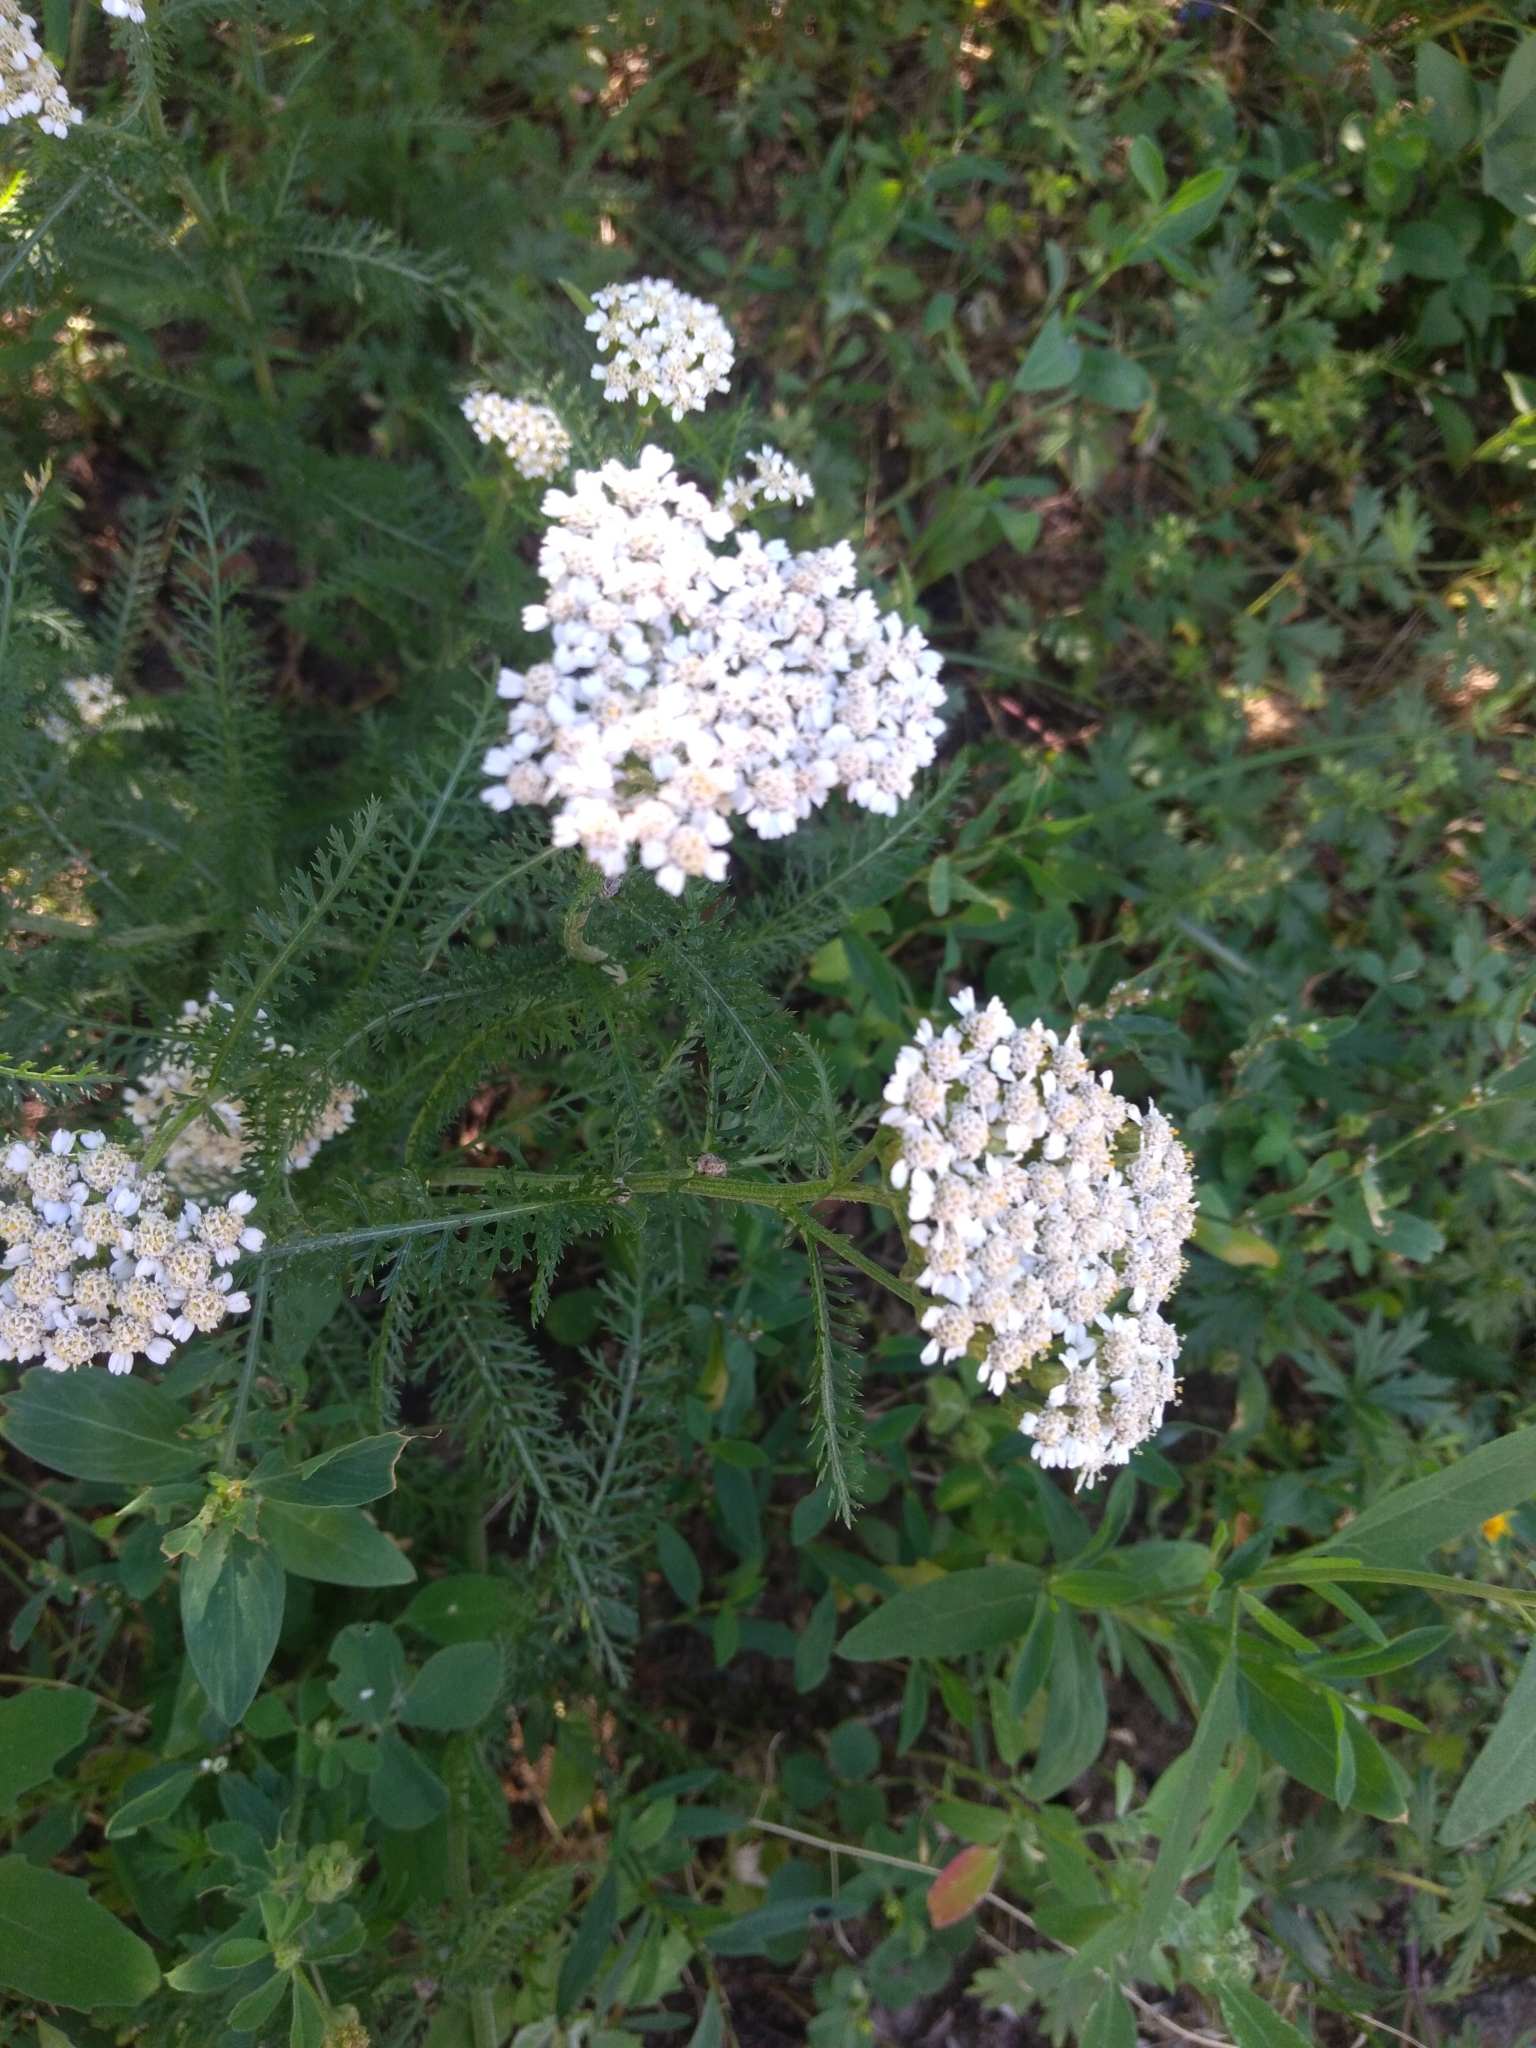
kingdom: Plantae
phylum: Tracheophyta
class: Magnoliopsida
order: Asterales
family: Asteraceae
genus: Achillea
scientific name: Achillea millefolium
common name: Yarrow
